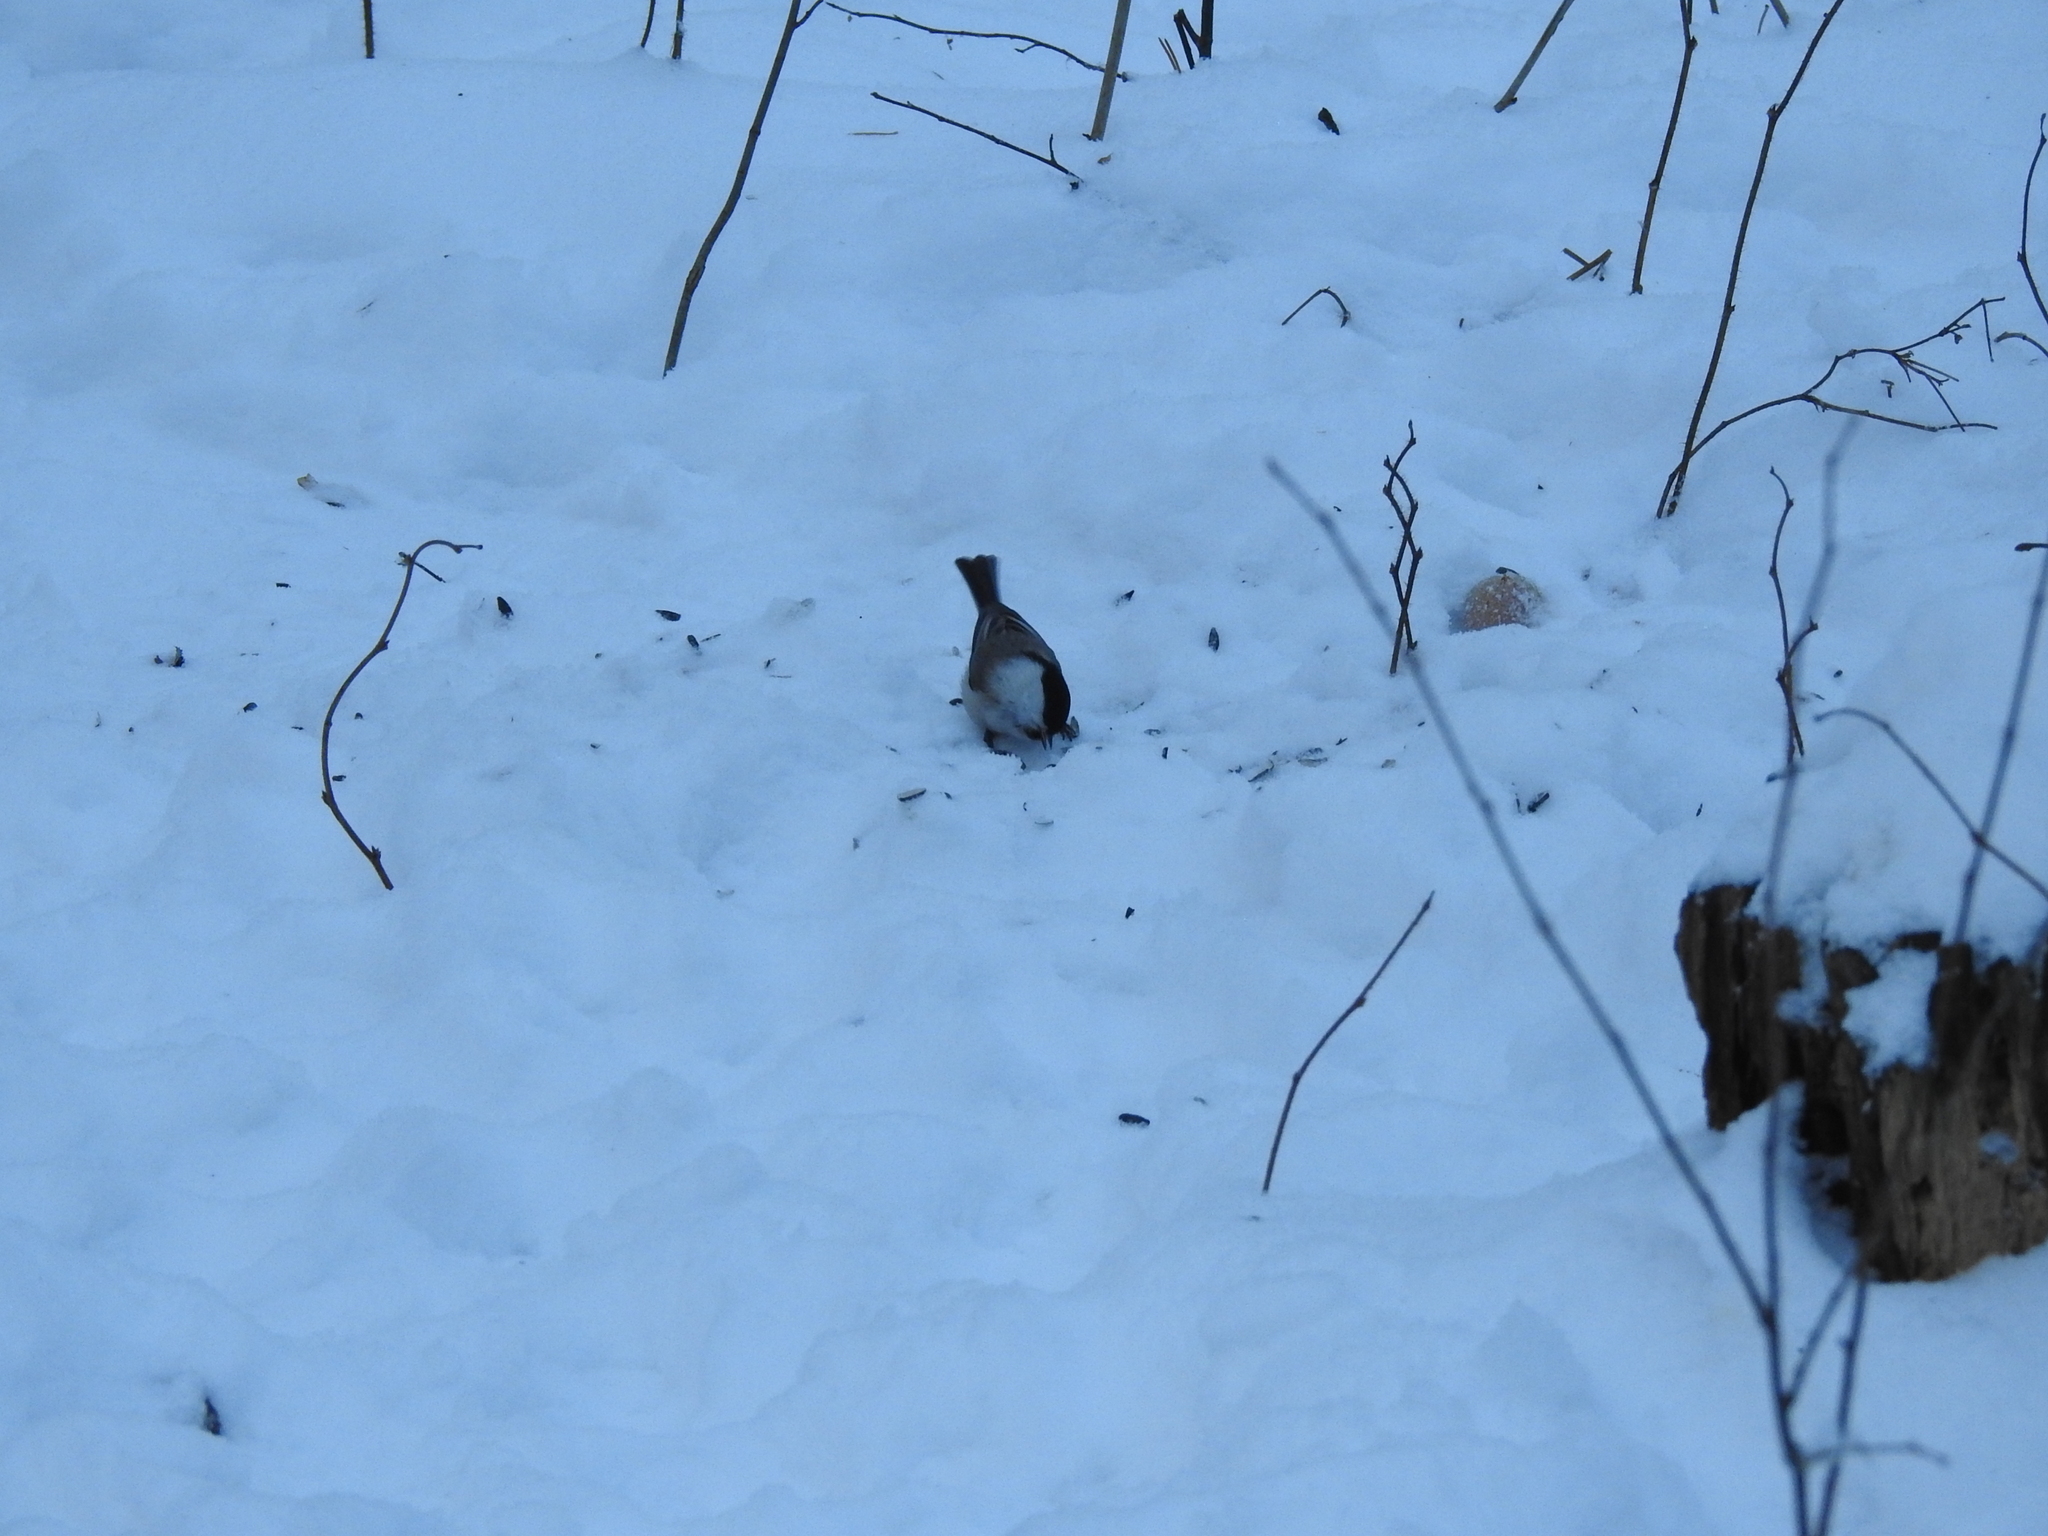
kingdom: Animalia
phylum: Chordata
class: Aves
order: Passeriformes
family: Paridae
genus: Poecile
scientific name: Poecile montanus
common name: Willow tit
